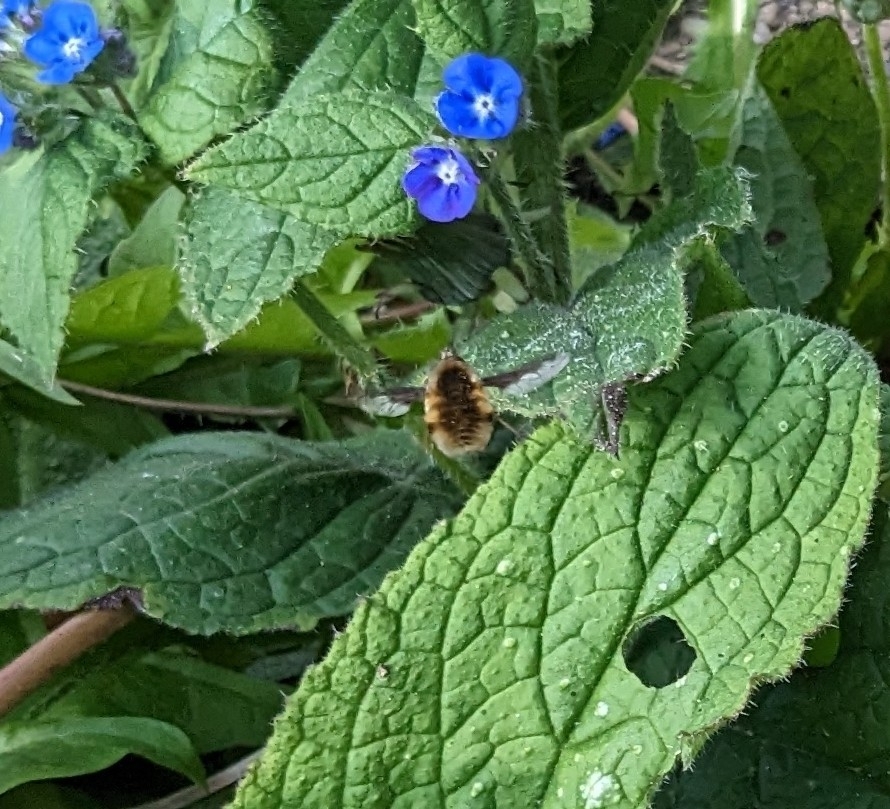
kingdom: Animalia
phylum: Arthropoda
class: Insecta
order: Diptera
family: Bombyliidae
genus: Bombylius
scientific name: Bombylius major
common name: Bee fly
